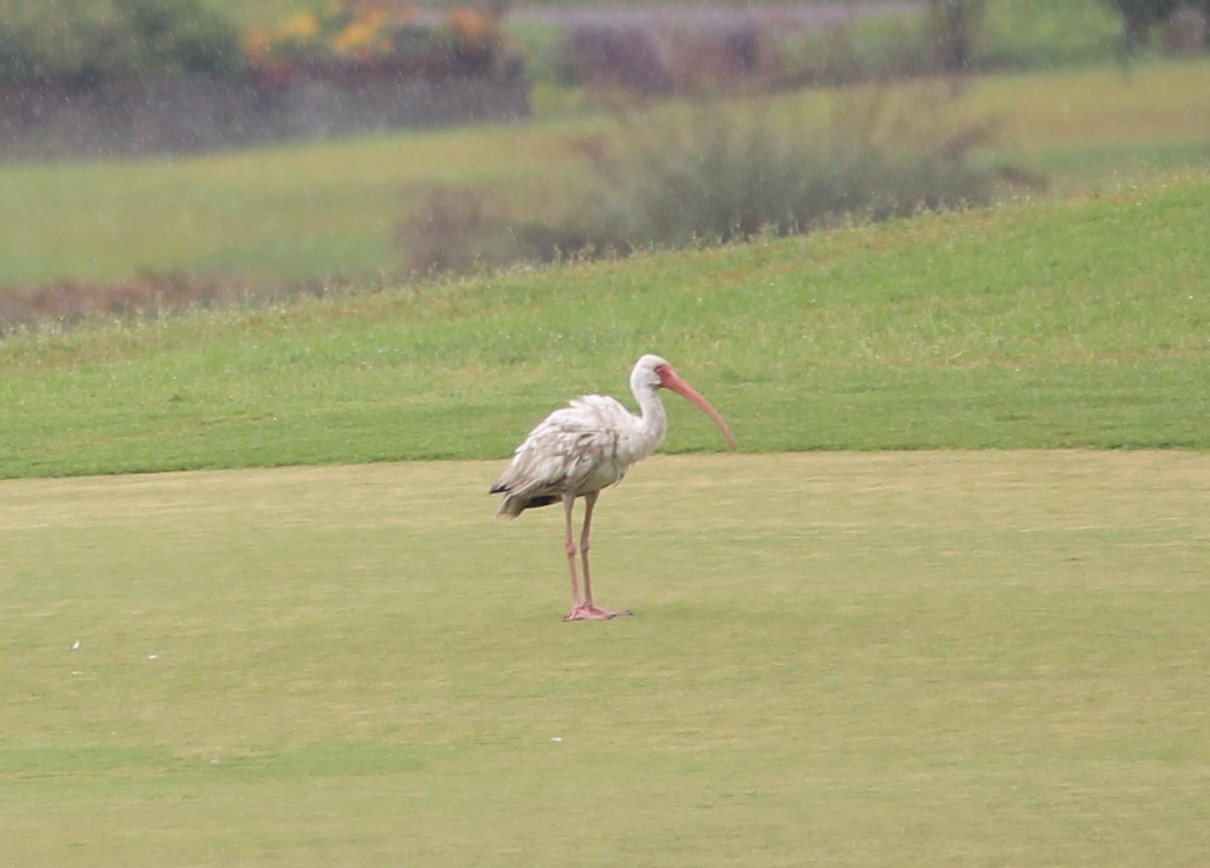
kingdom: Animalia
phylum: Chordata
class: Aves
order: Pelecaniformes
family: Threskiornithidae
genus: Eudocimus
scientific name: Eudocimus albus
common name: White ibis
